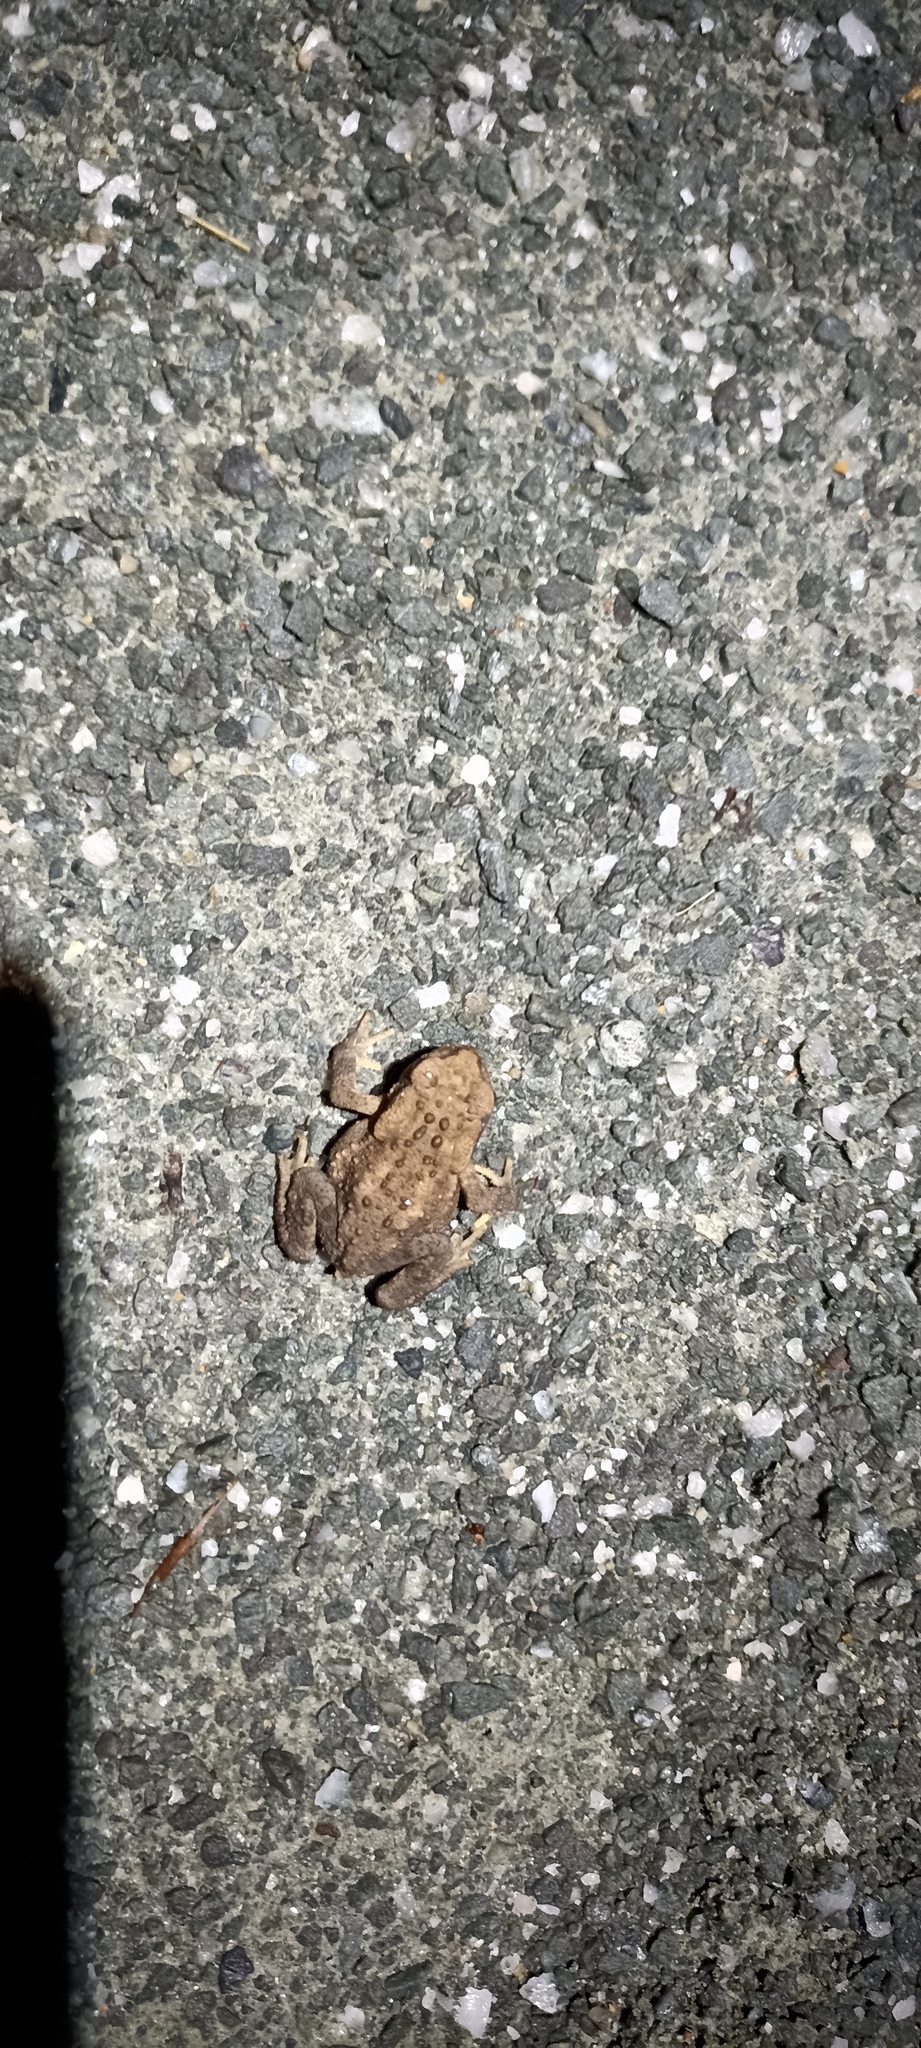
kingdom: Animalia
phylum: Chordata
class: Amphibia
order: Anura
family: Bufonidae
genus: Bufo
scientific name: Bufo spinosus
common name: Western common toad
